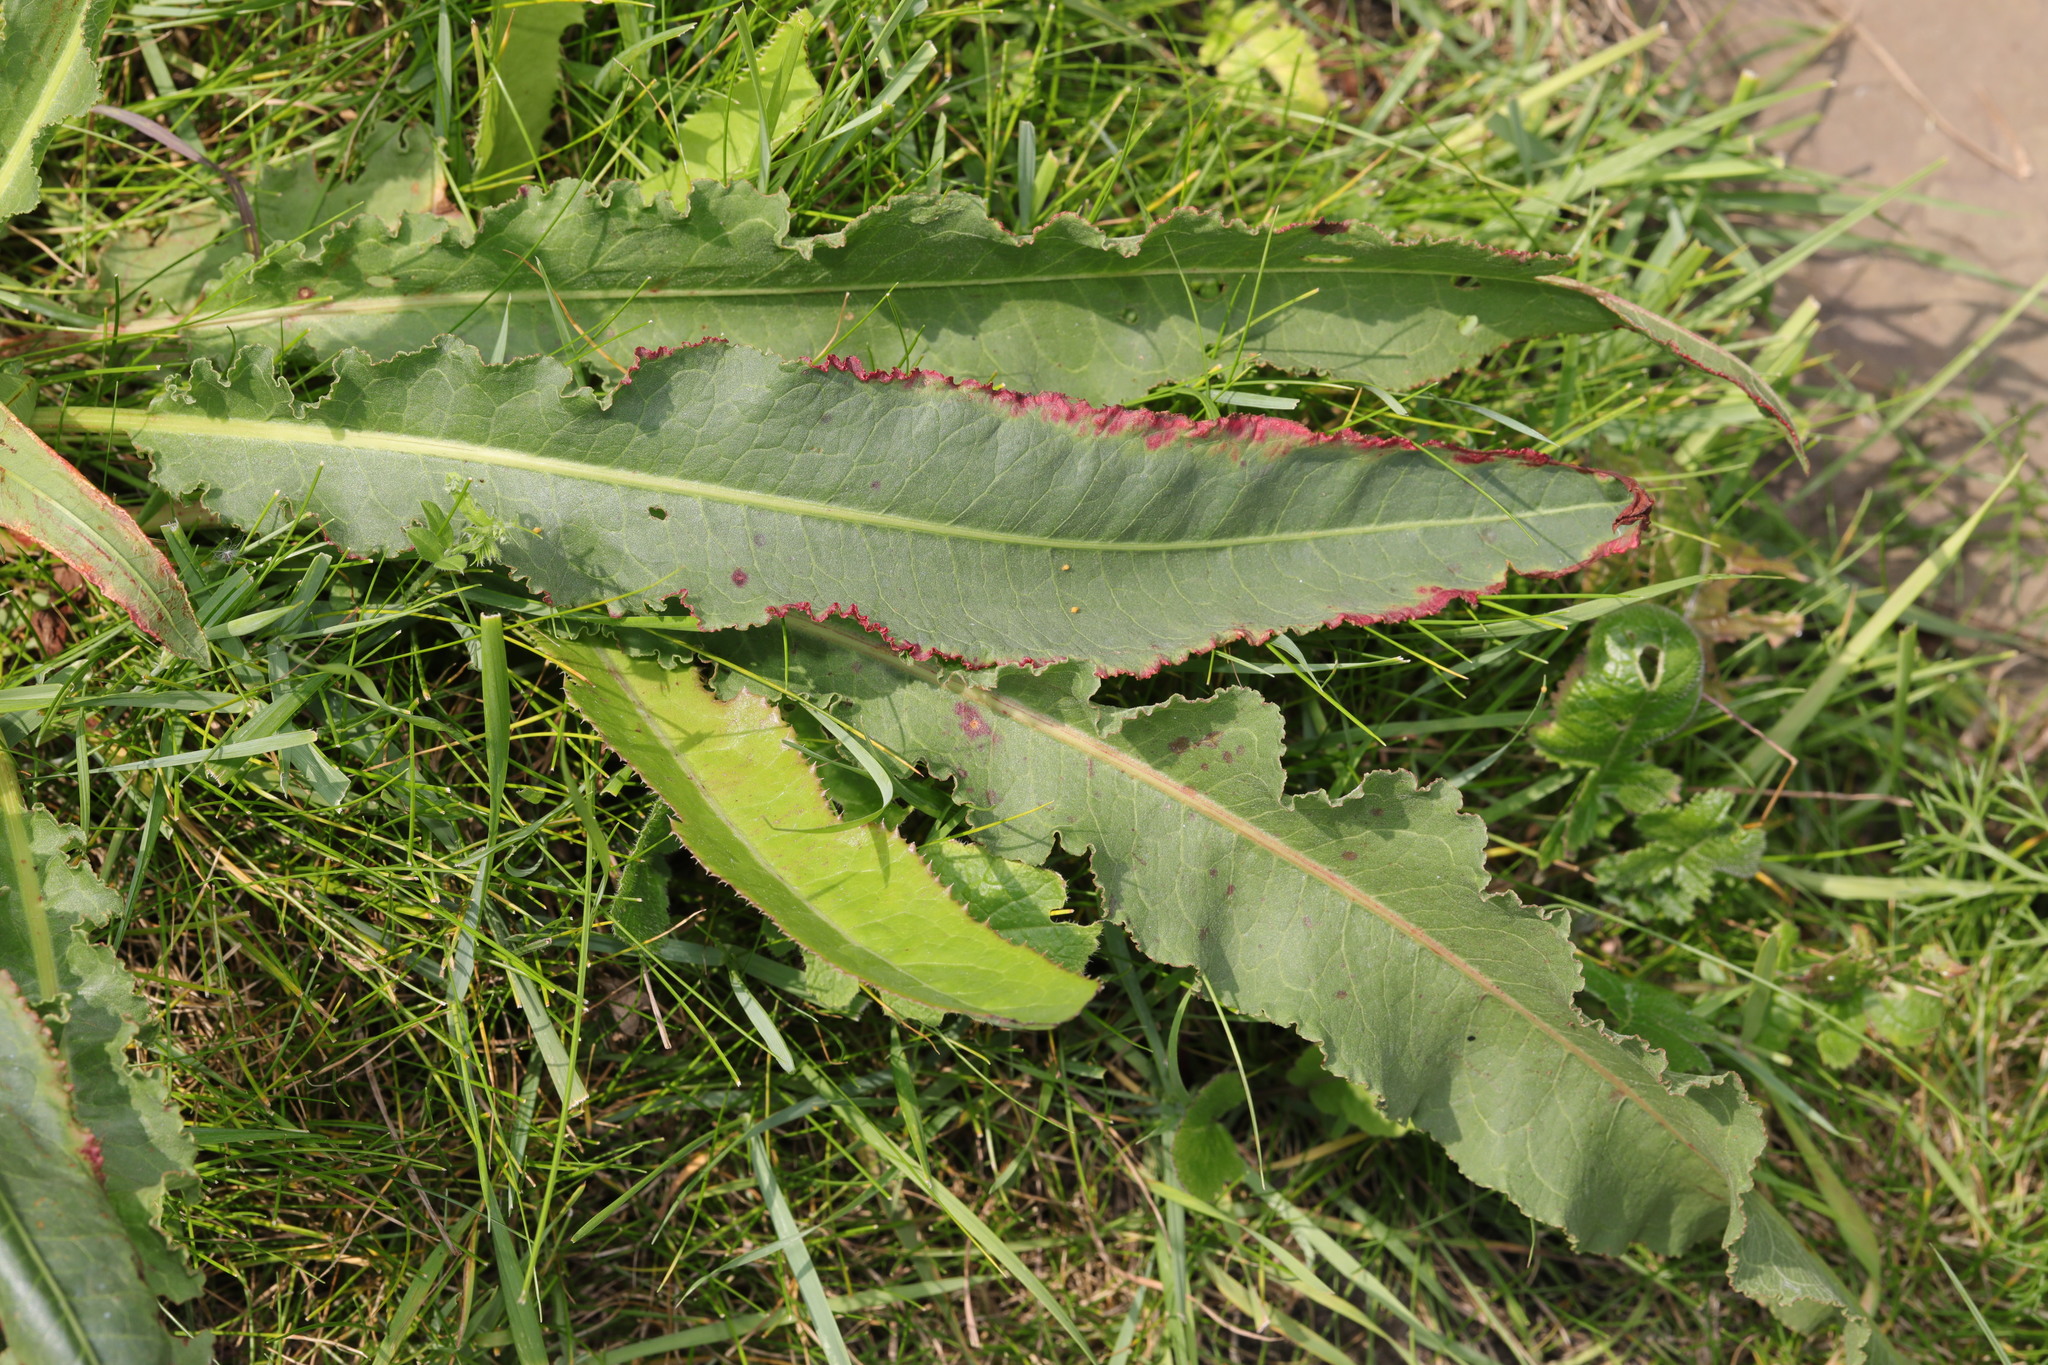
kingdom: Plantae
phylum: Tracheophyta
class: Magnoliopsida
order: Caryophyllales
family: Polygonaceae
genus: Rumex
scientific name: Rumex crispus
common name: Curled dock
